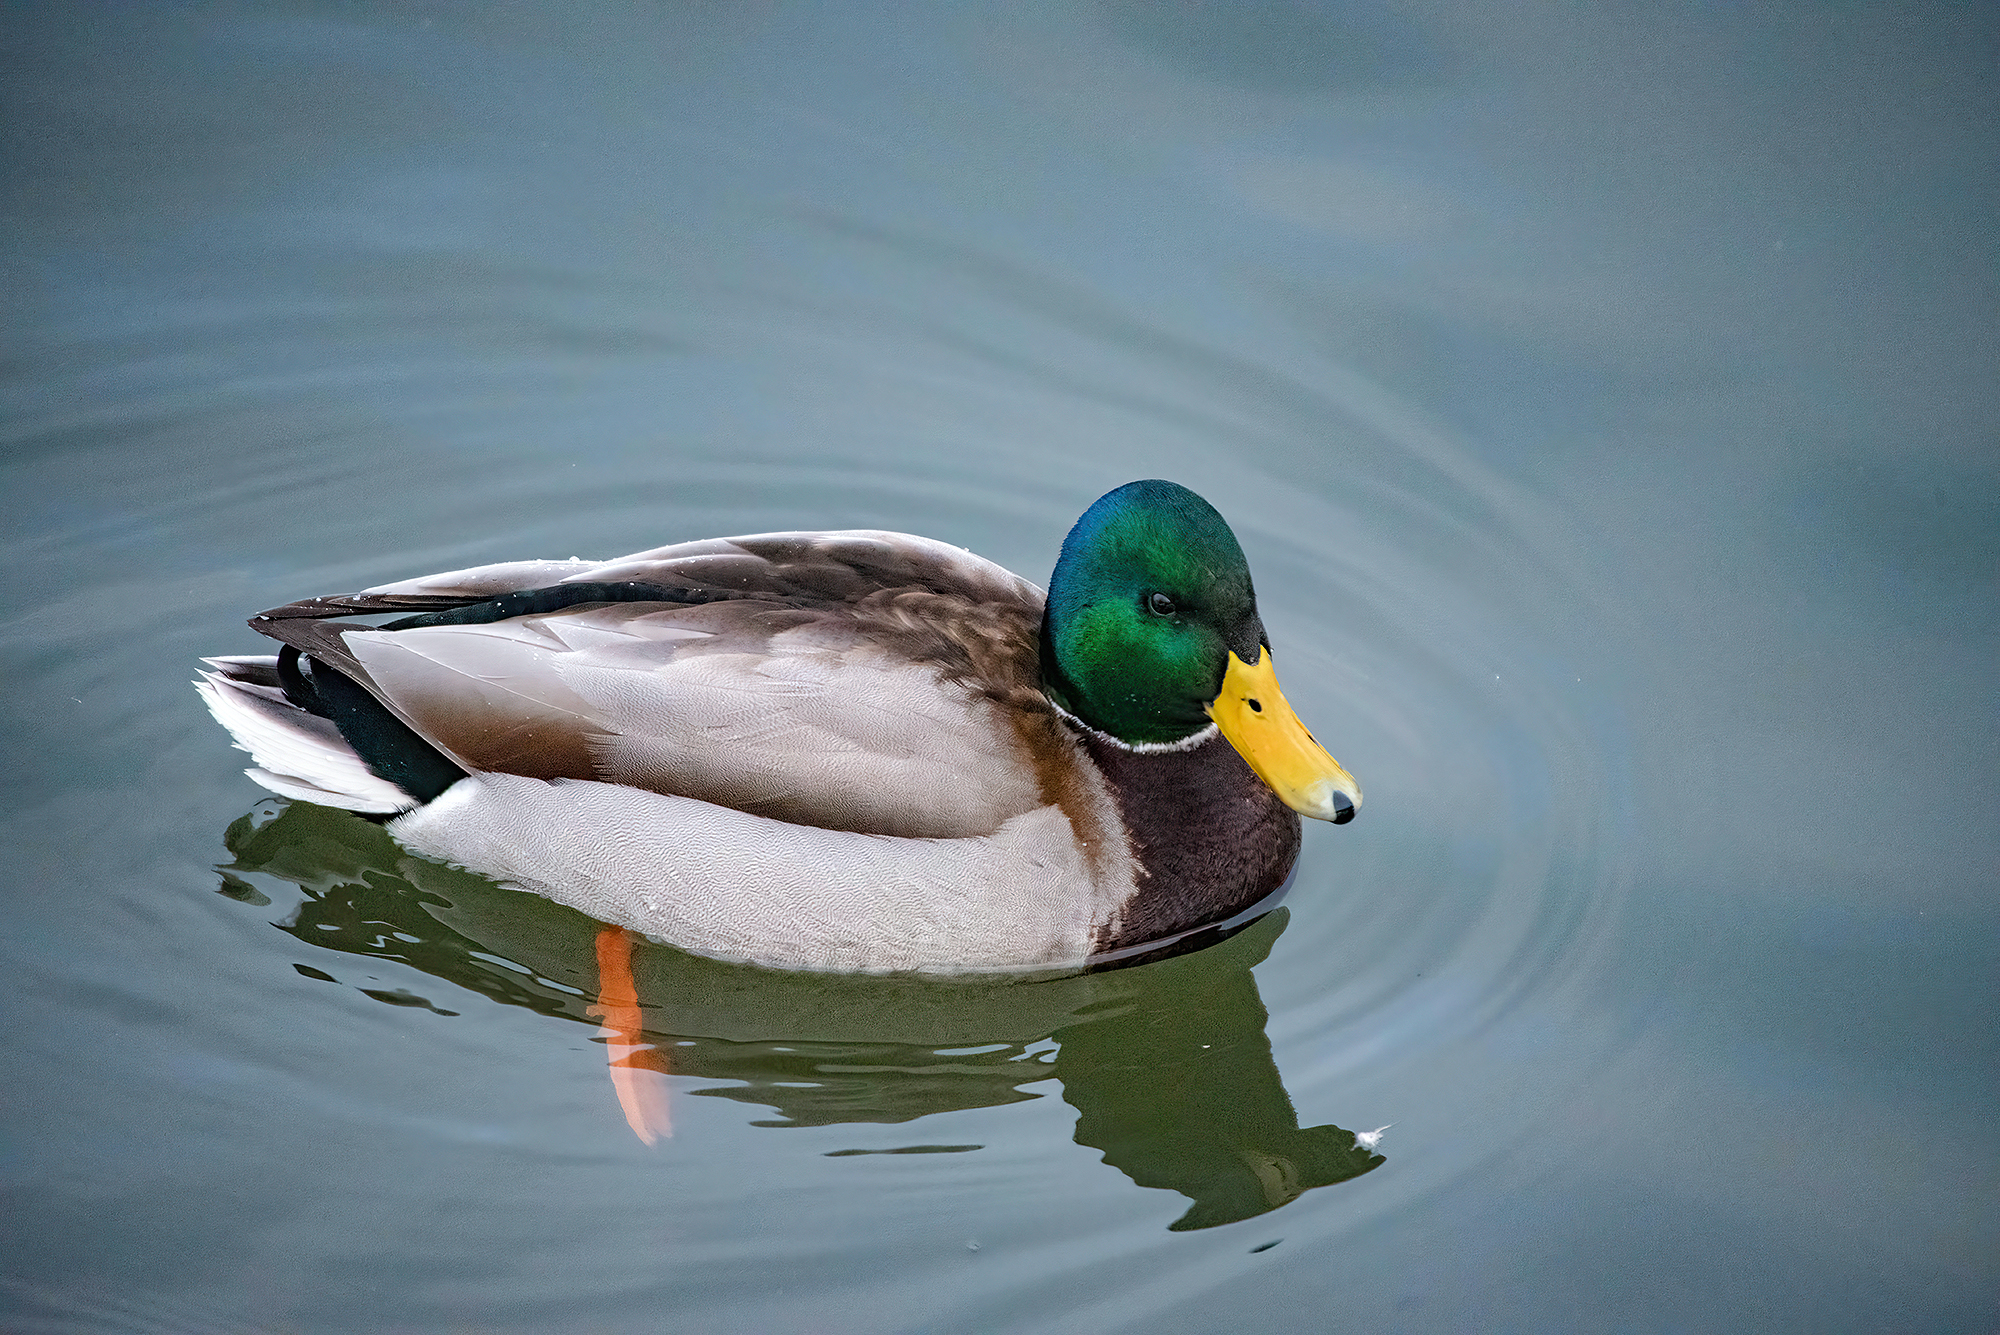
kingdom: Animalia
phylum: Chordata
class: Aves
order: Anseriformes
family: Anatidae
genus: Anas
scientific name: Anas platyrhynchos
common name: Mallard
